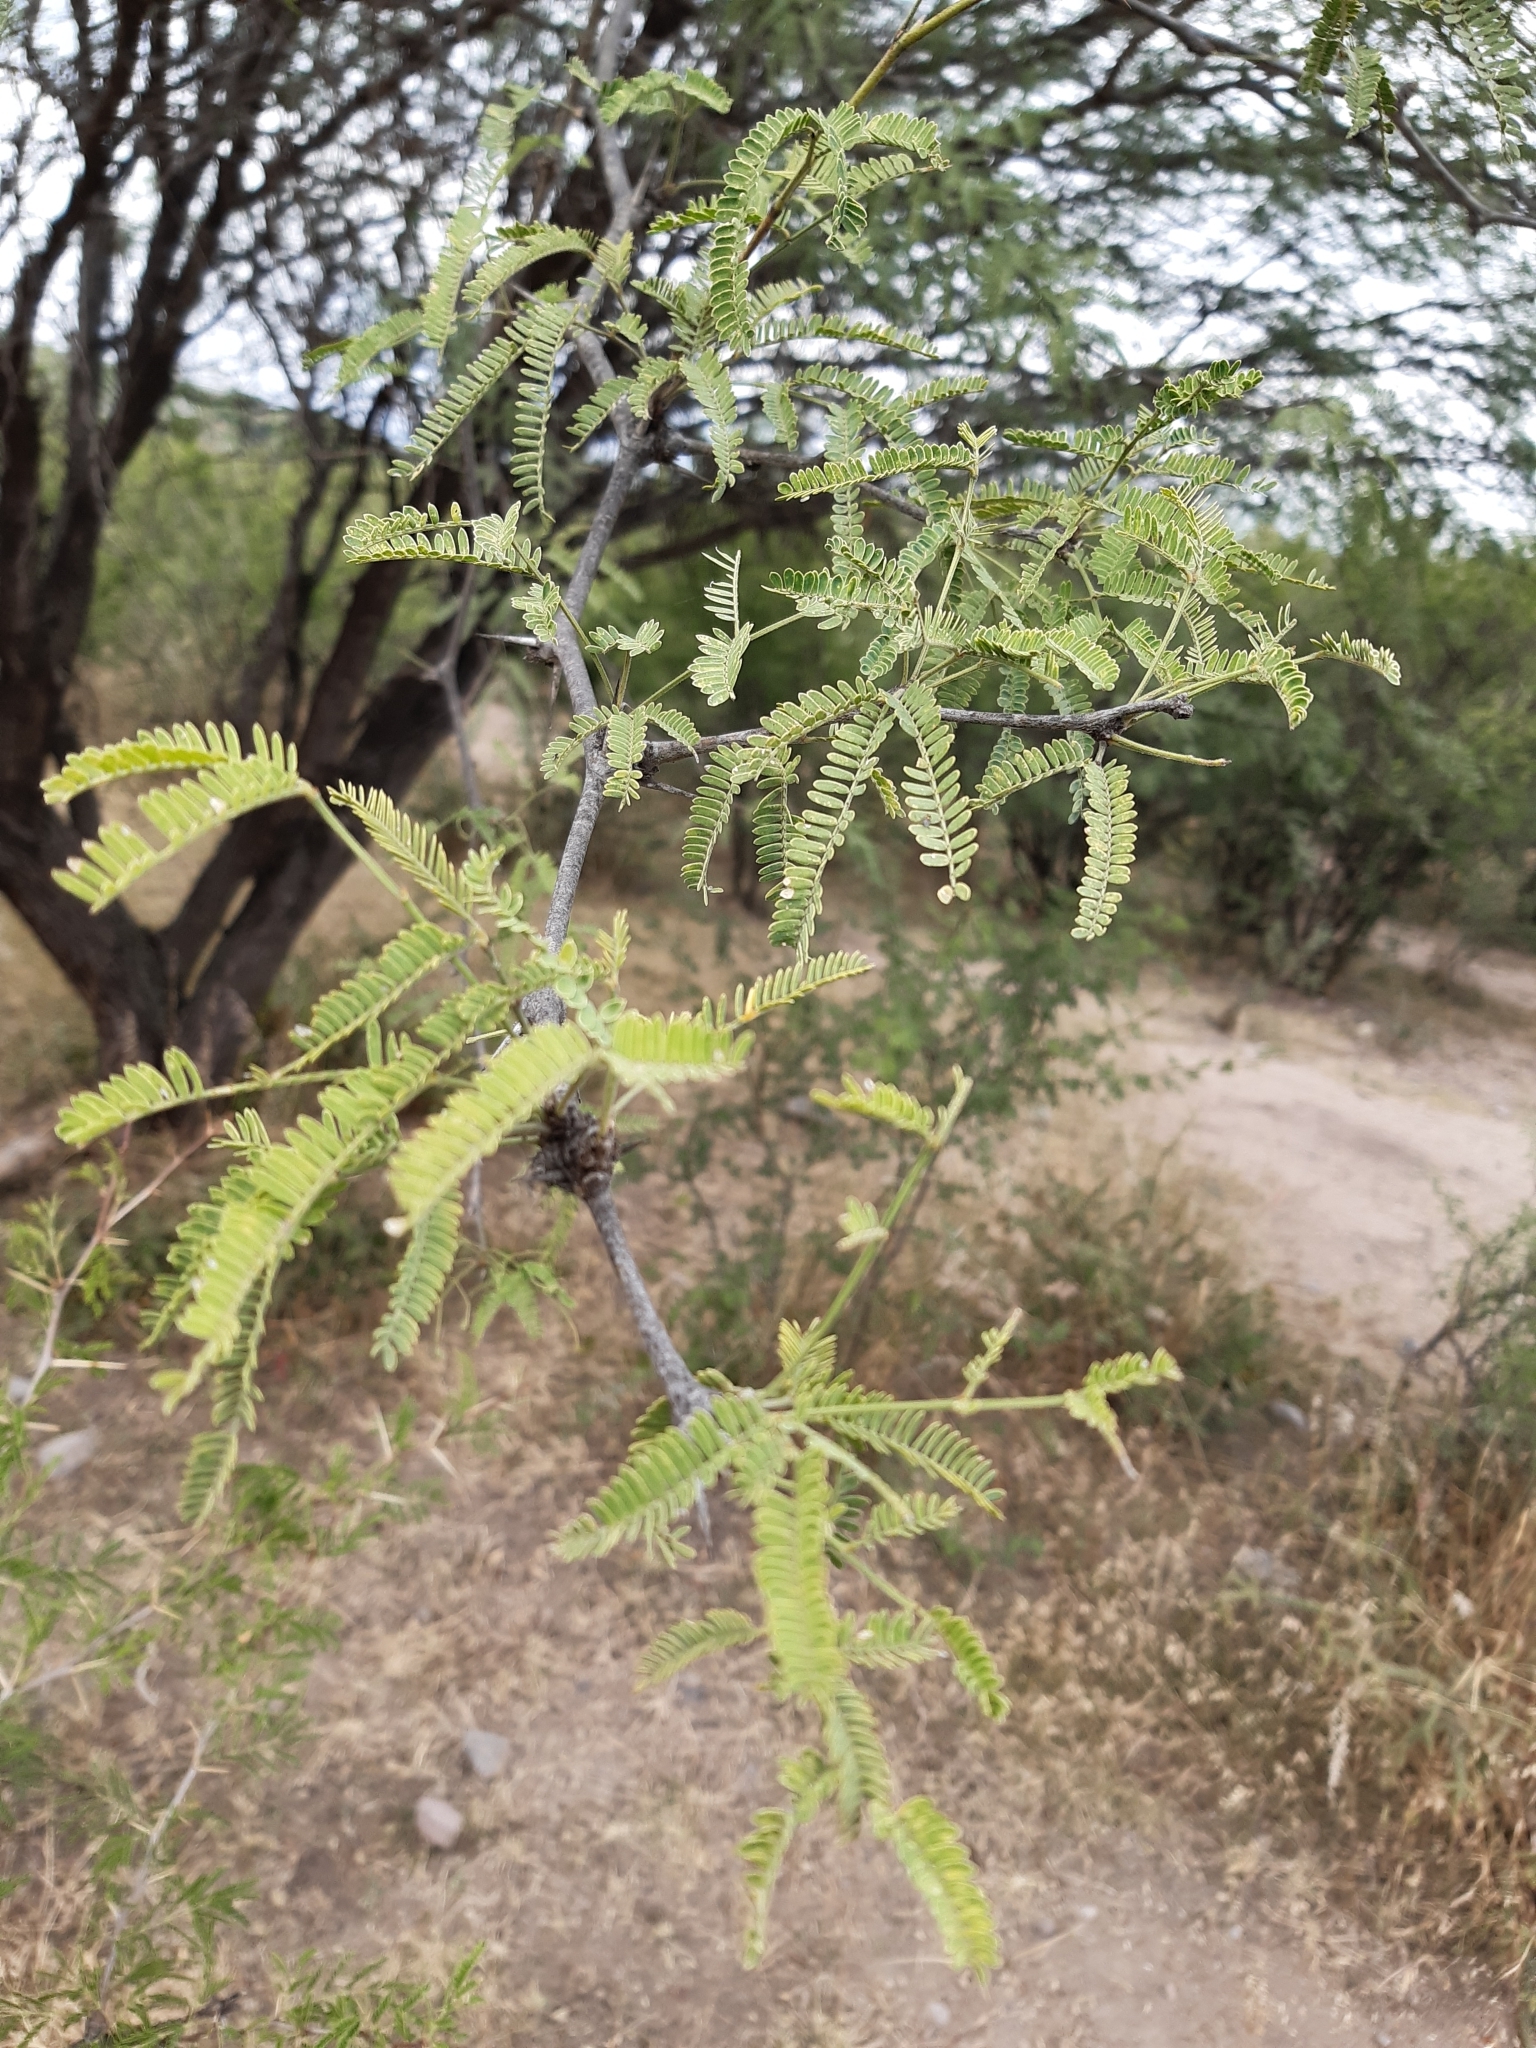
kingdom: Plantae
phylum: Tracheophyta
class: Magnoliopsida
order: Fabales
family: Fabaceae
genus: Prosopis
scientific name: Prosopis laevigata
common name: Smooth mesquite
